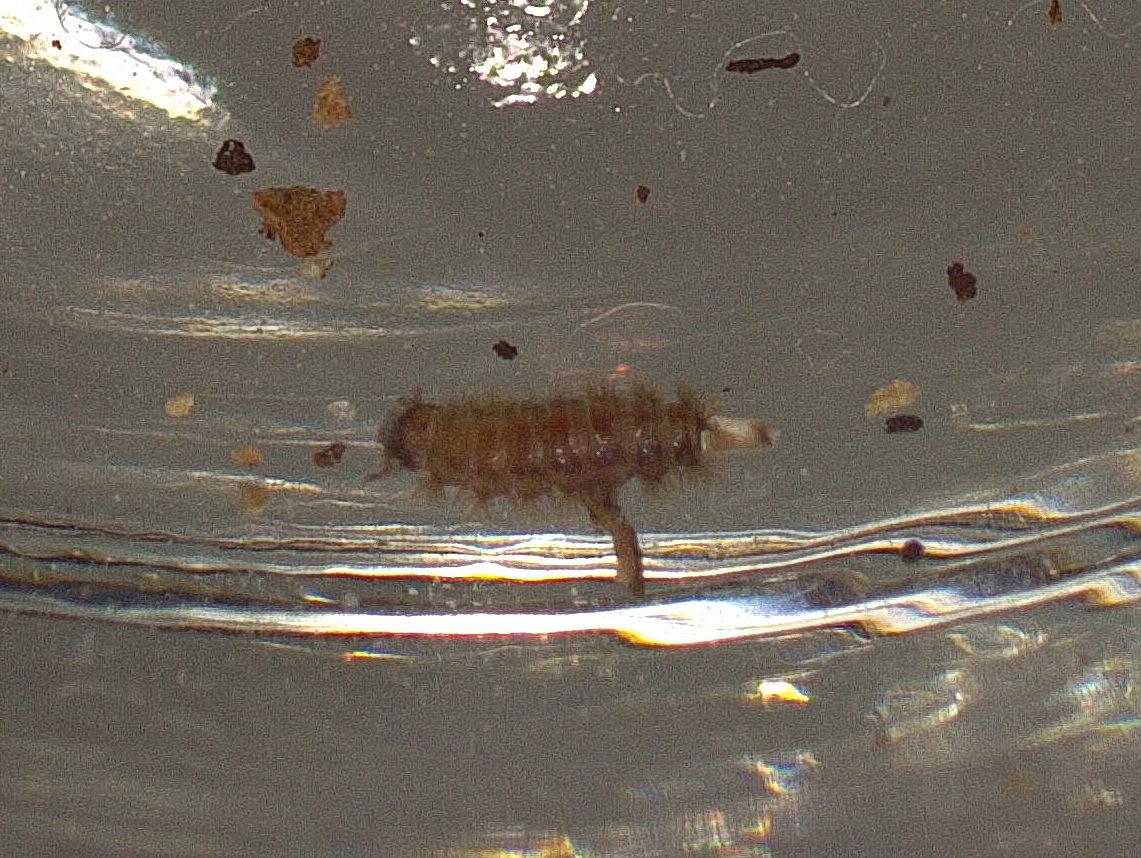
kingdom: Animalia
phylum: Arthropoda
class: Diplopoda
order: Polyxenida
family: Polyxenidae
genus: Polyxenus
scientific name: Polyxenus lagurus
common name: Bristly millipede
